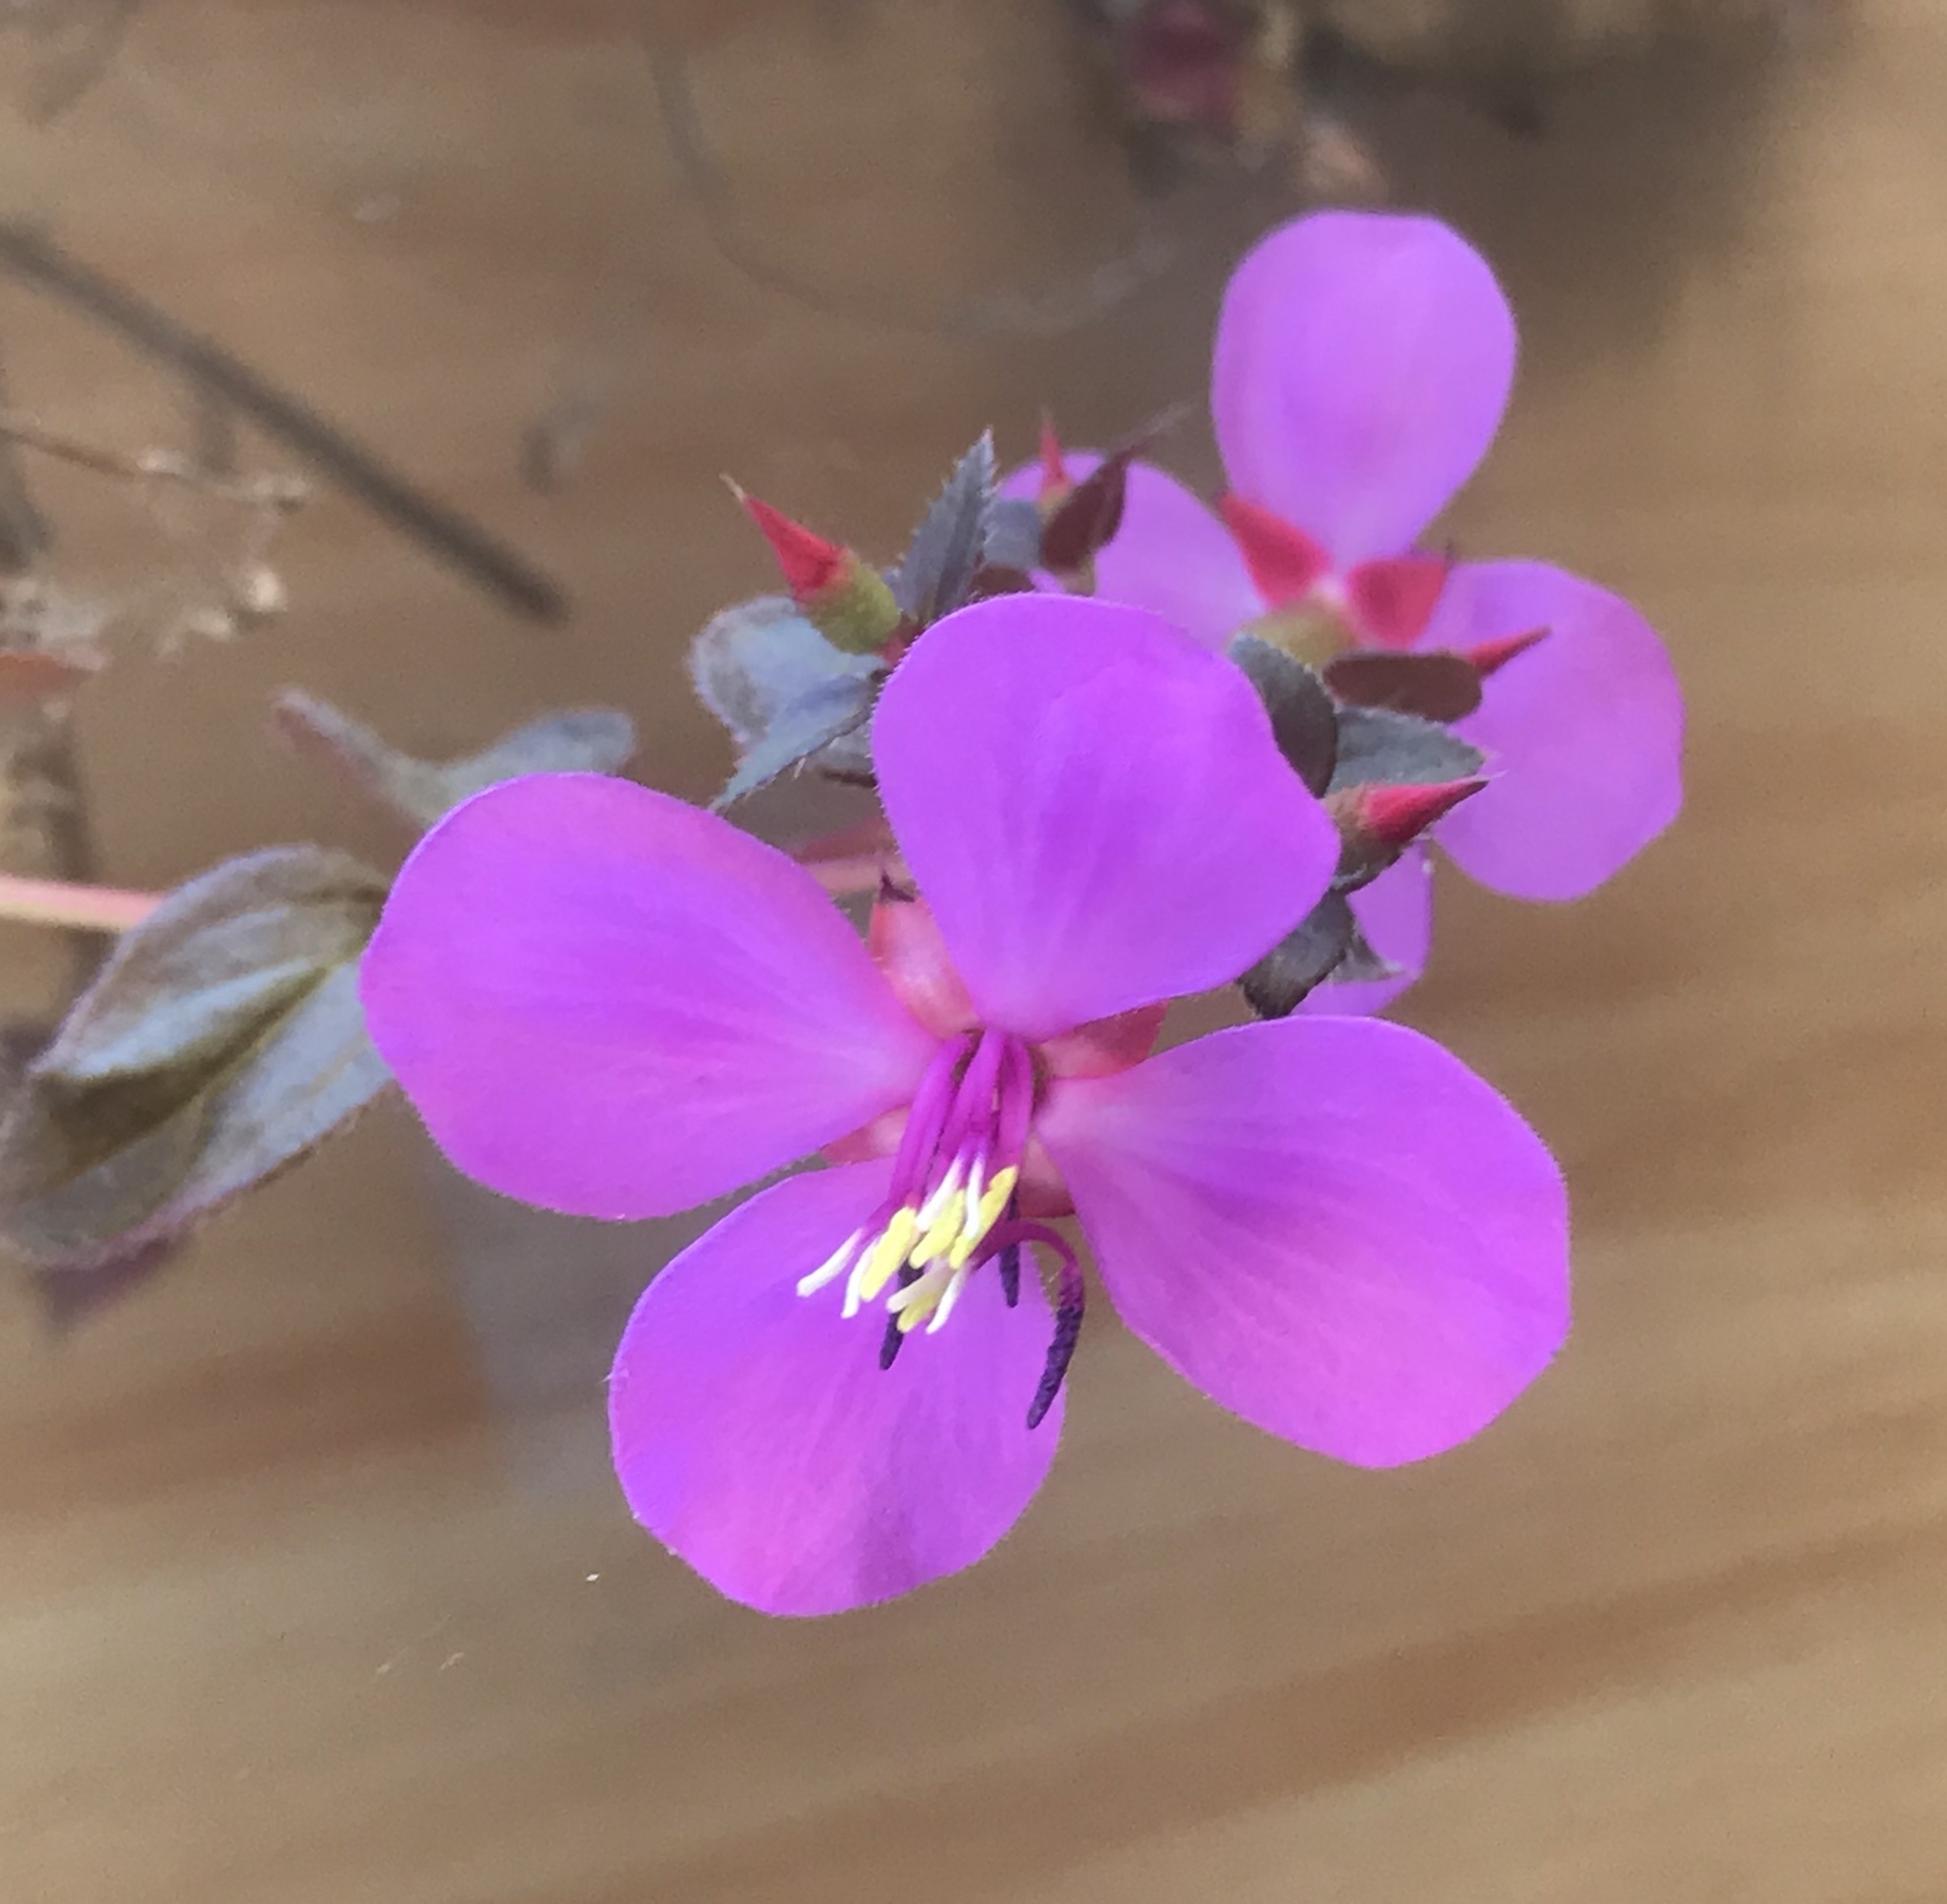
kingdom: Plantae
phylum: Tracheophyta
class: Magnoliopsida
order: Myrtales
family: Melastomataceae
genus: Heterocentron
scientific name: Heterocentron subtriplinervium
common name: Pearl flower
